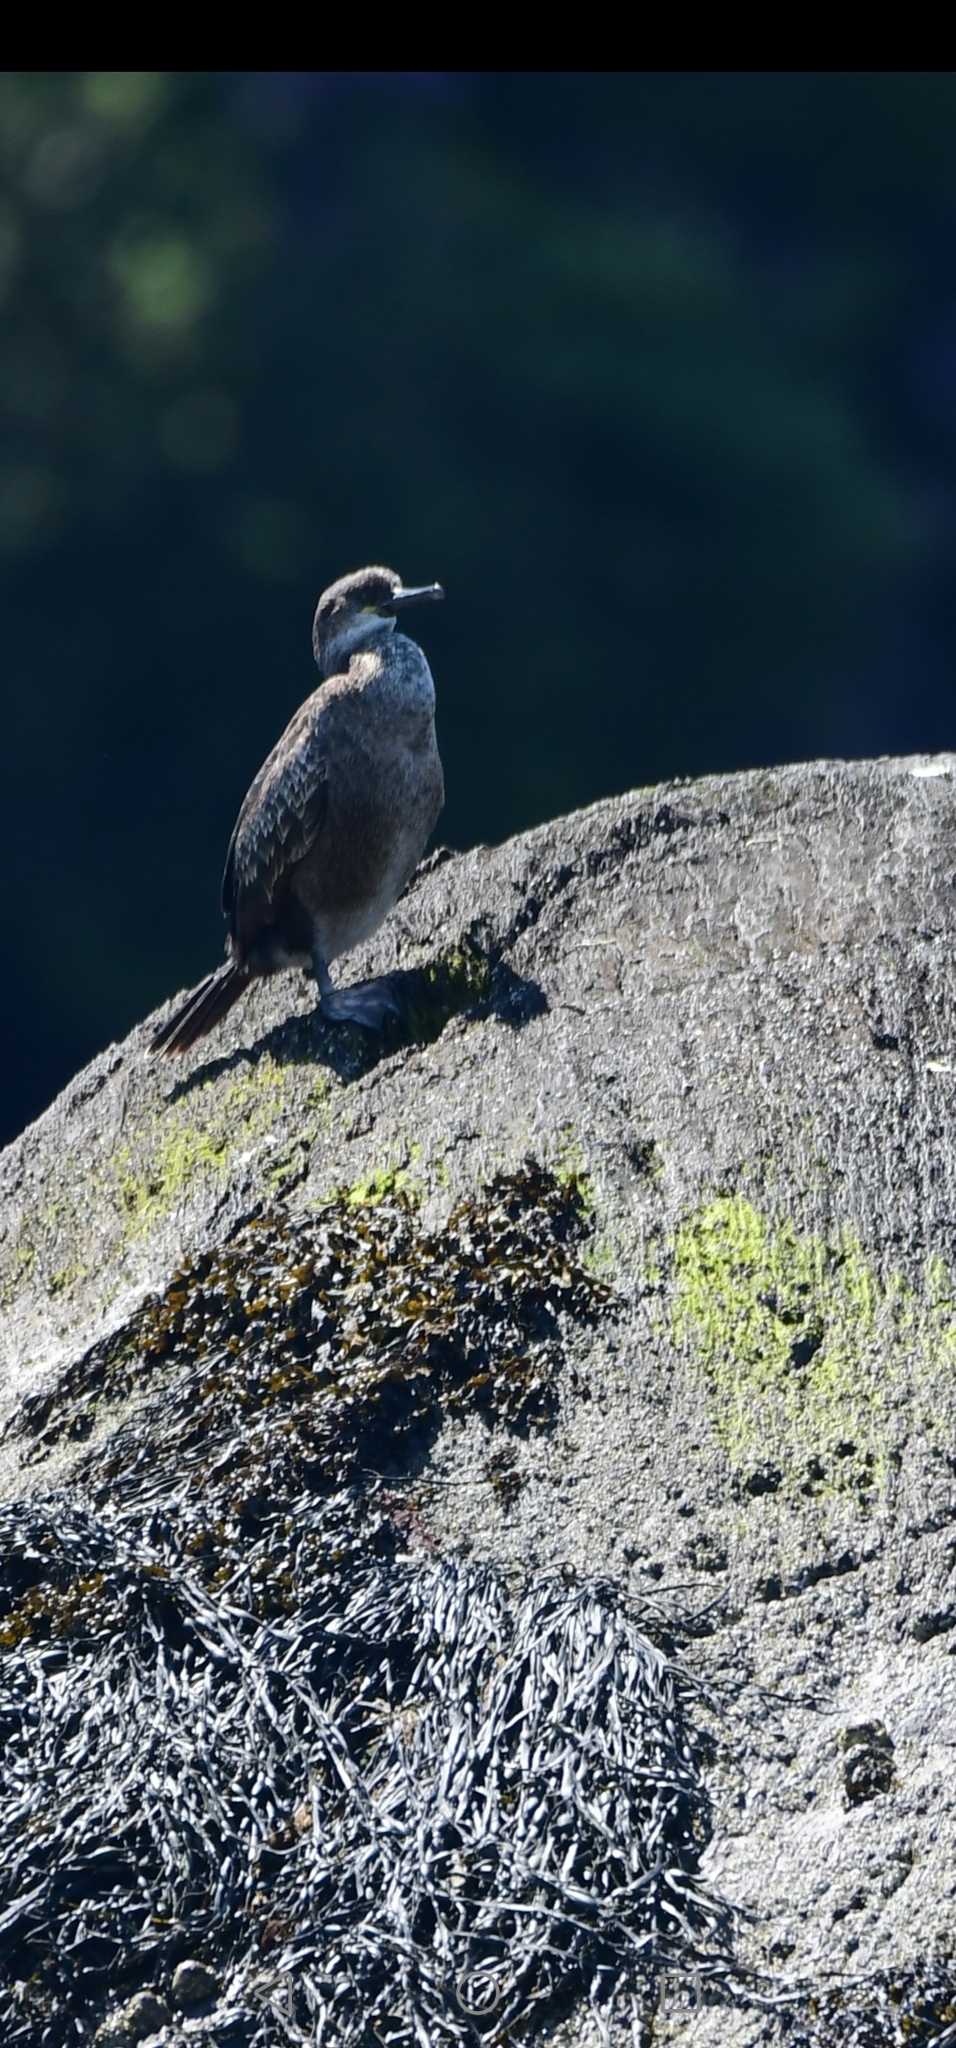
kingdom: Animalia
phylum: Chordata
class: Aves
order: Suliformes
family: Phalacrocoracidae
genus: Phalacrocorax
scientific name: Phalacrocorax aristotelis
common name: European shag
